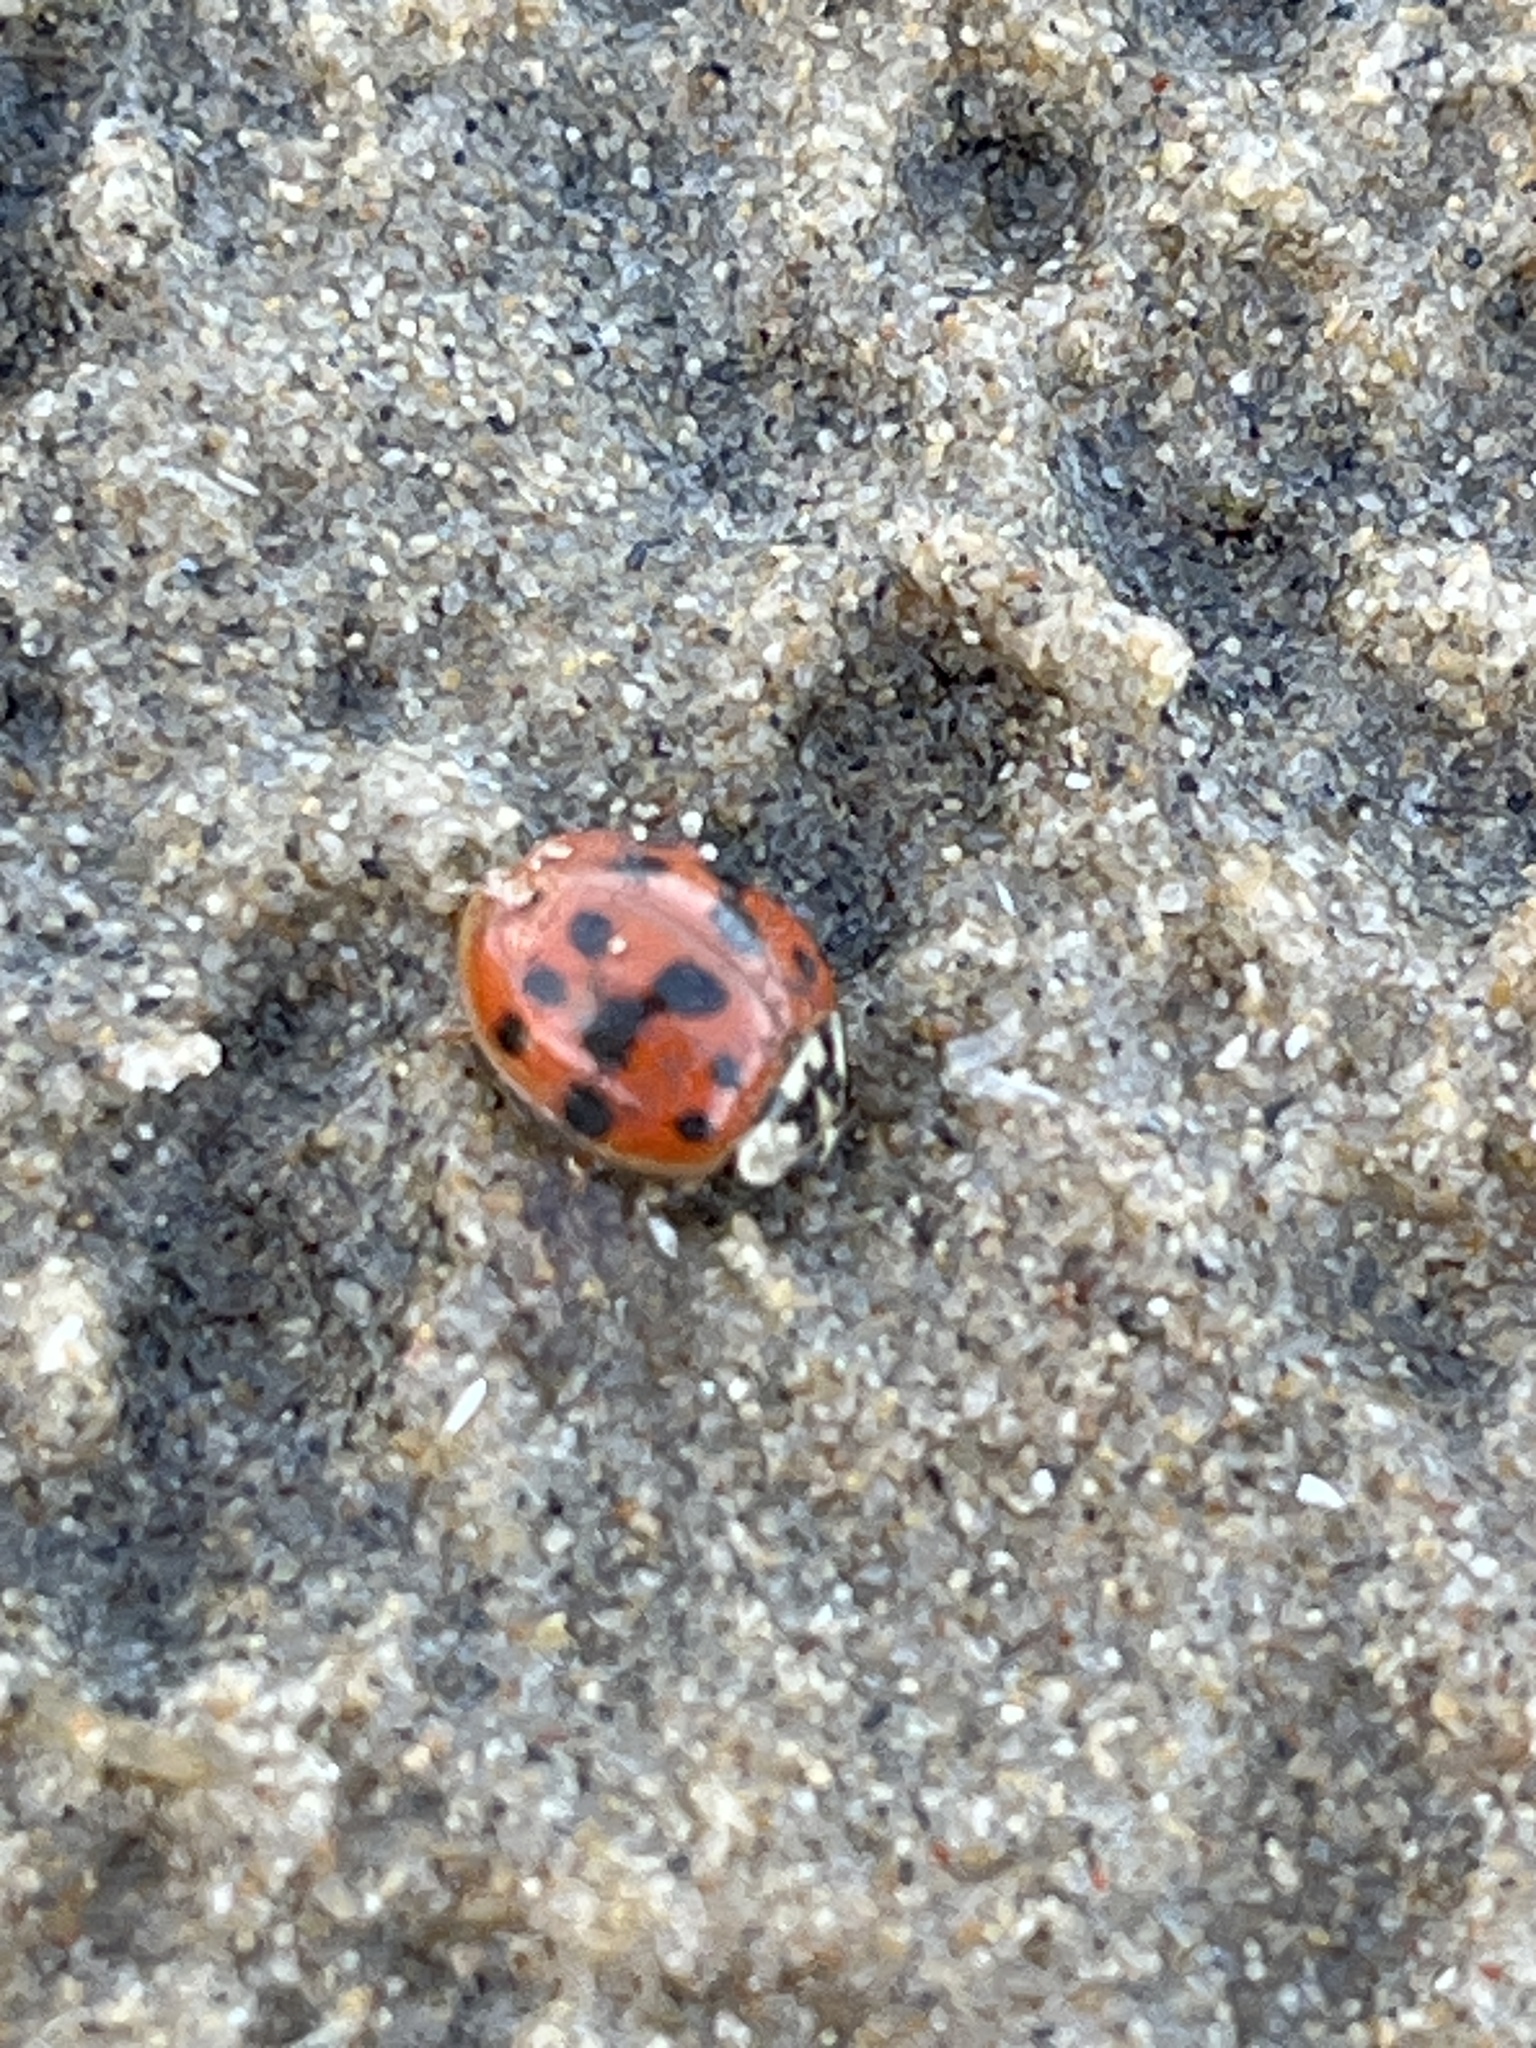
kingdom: Animalia
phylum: Arthropoda
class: Insecta
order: Coleoptera
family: Coccinellidae
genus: Harmonia
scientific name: Harmonia axyridis
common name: Harlequin ladybird
